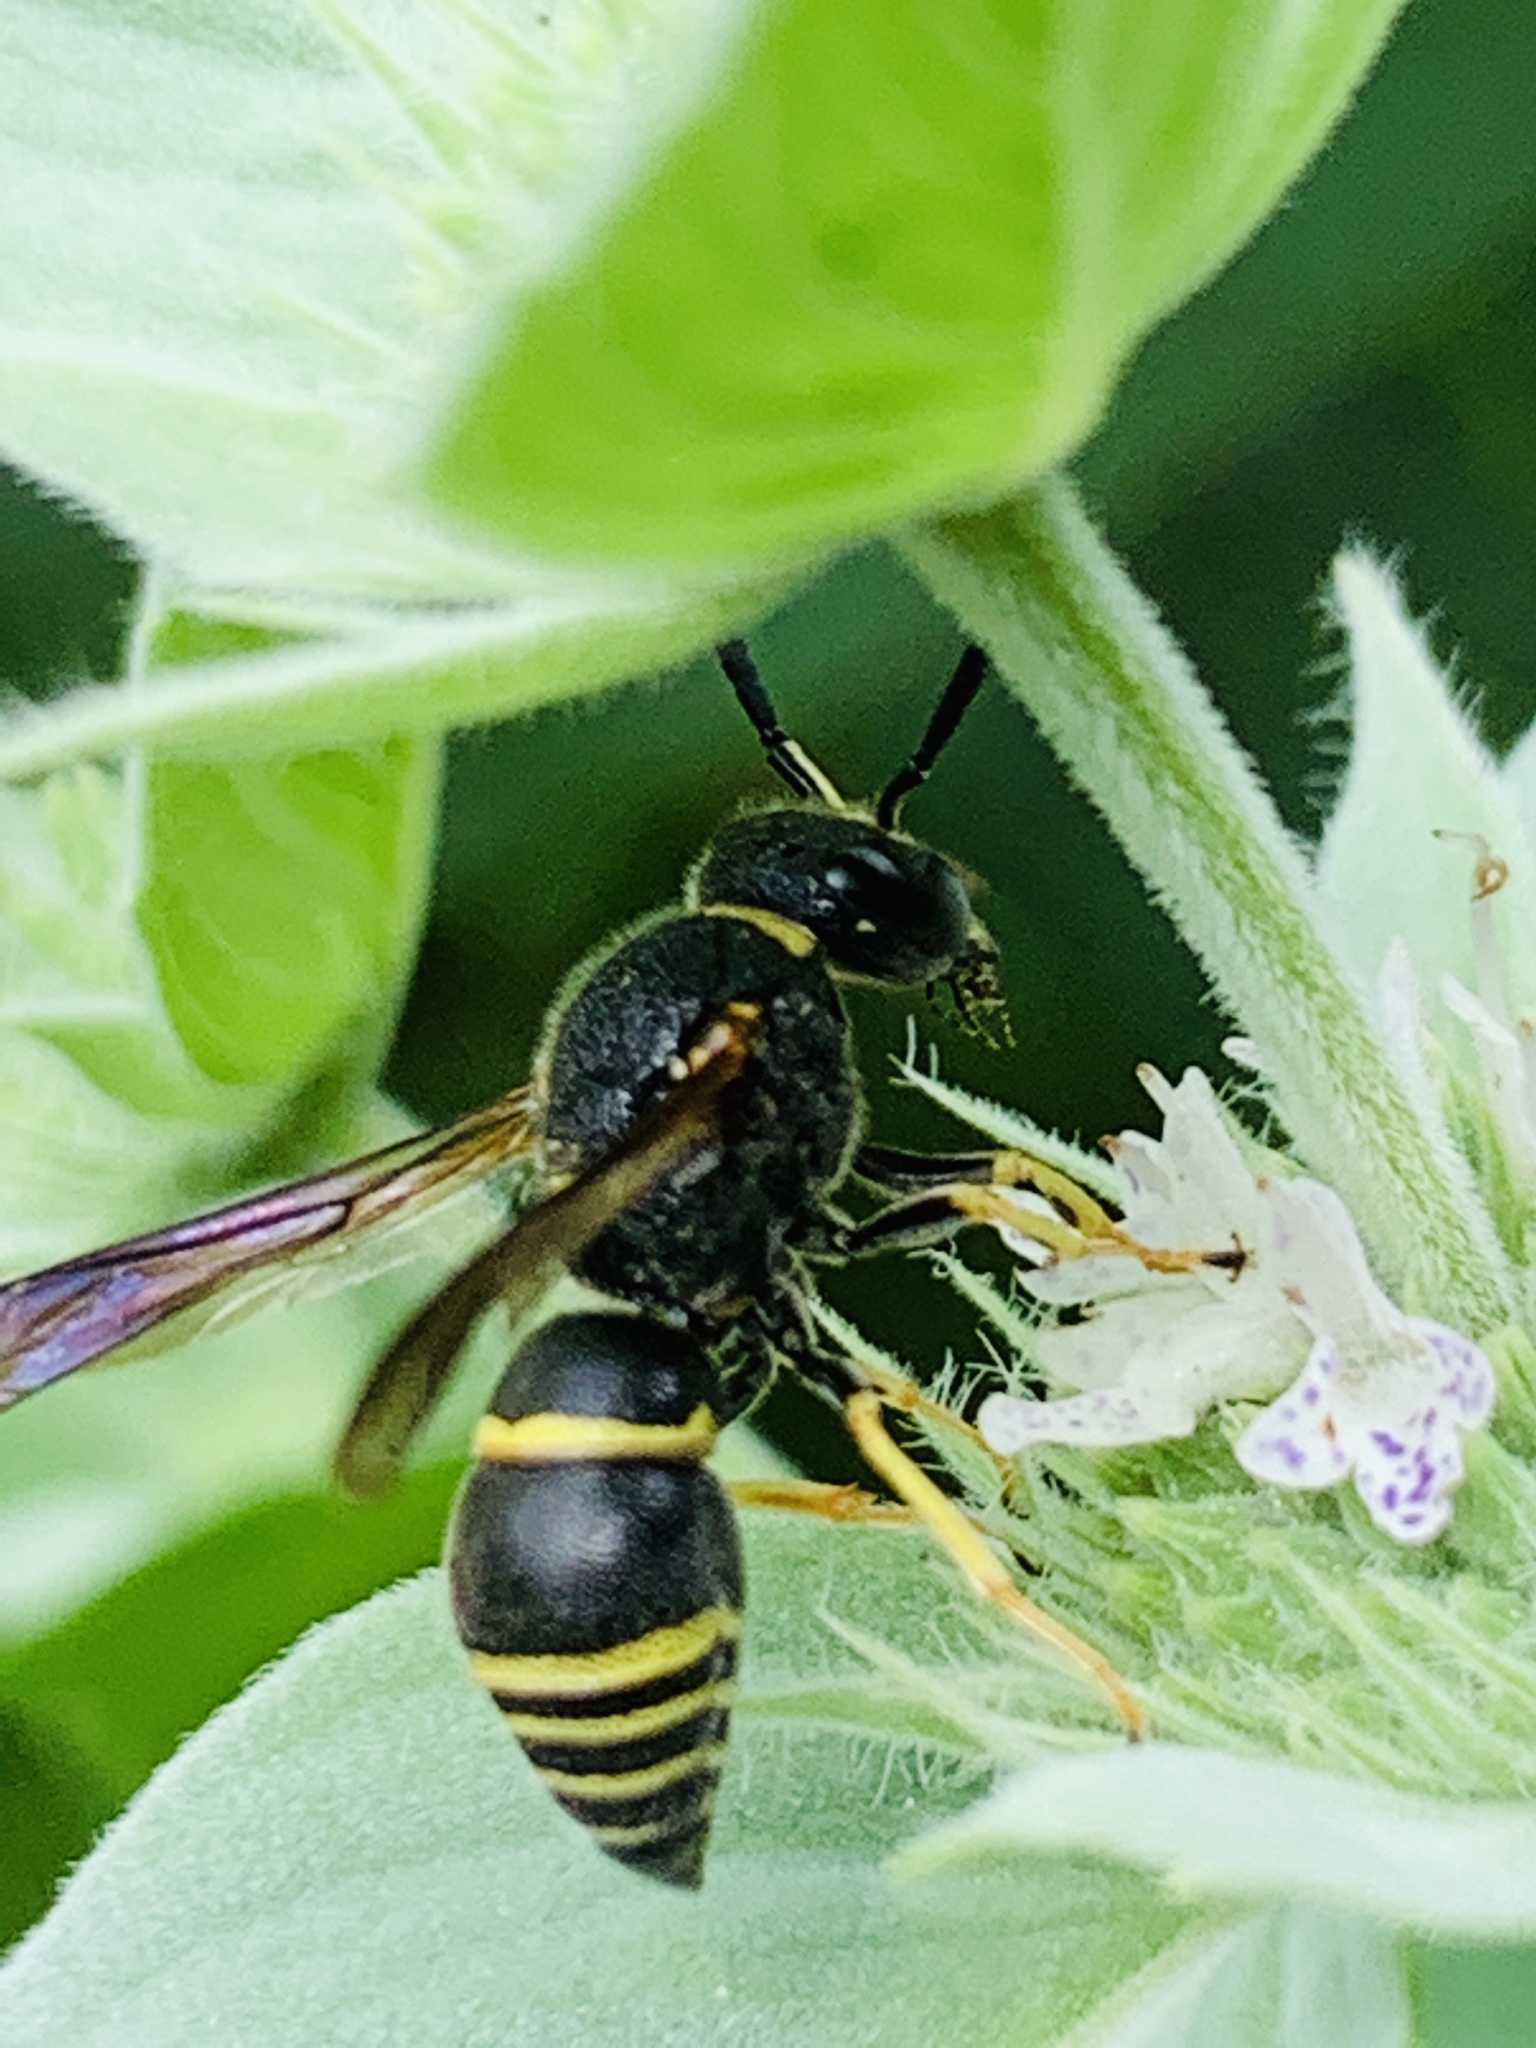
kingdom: Animalia
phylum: Arthropoda
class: Insecta
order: Hymenoptera
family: Eumenidae
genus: Euodynerus
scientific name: Euodynerus foraminatus
